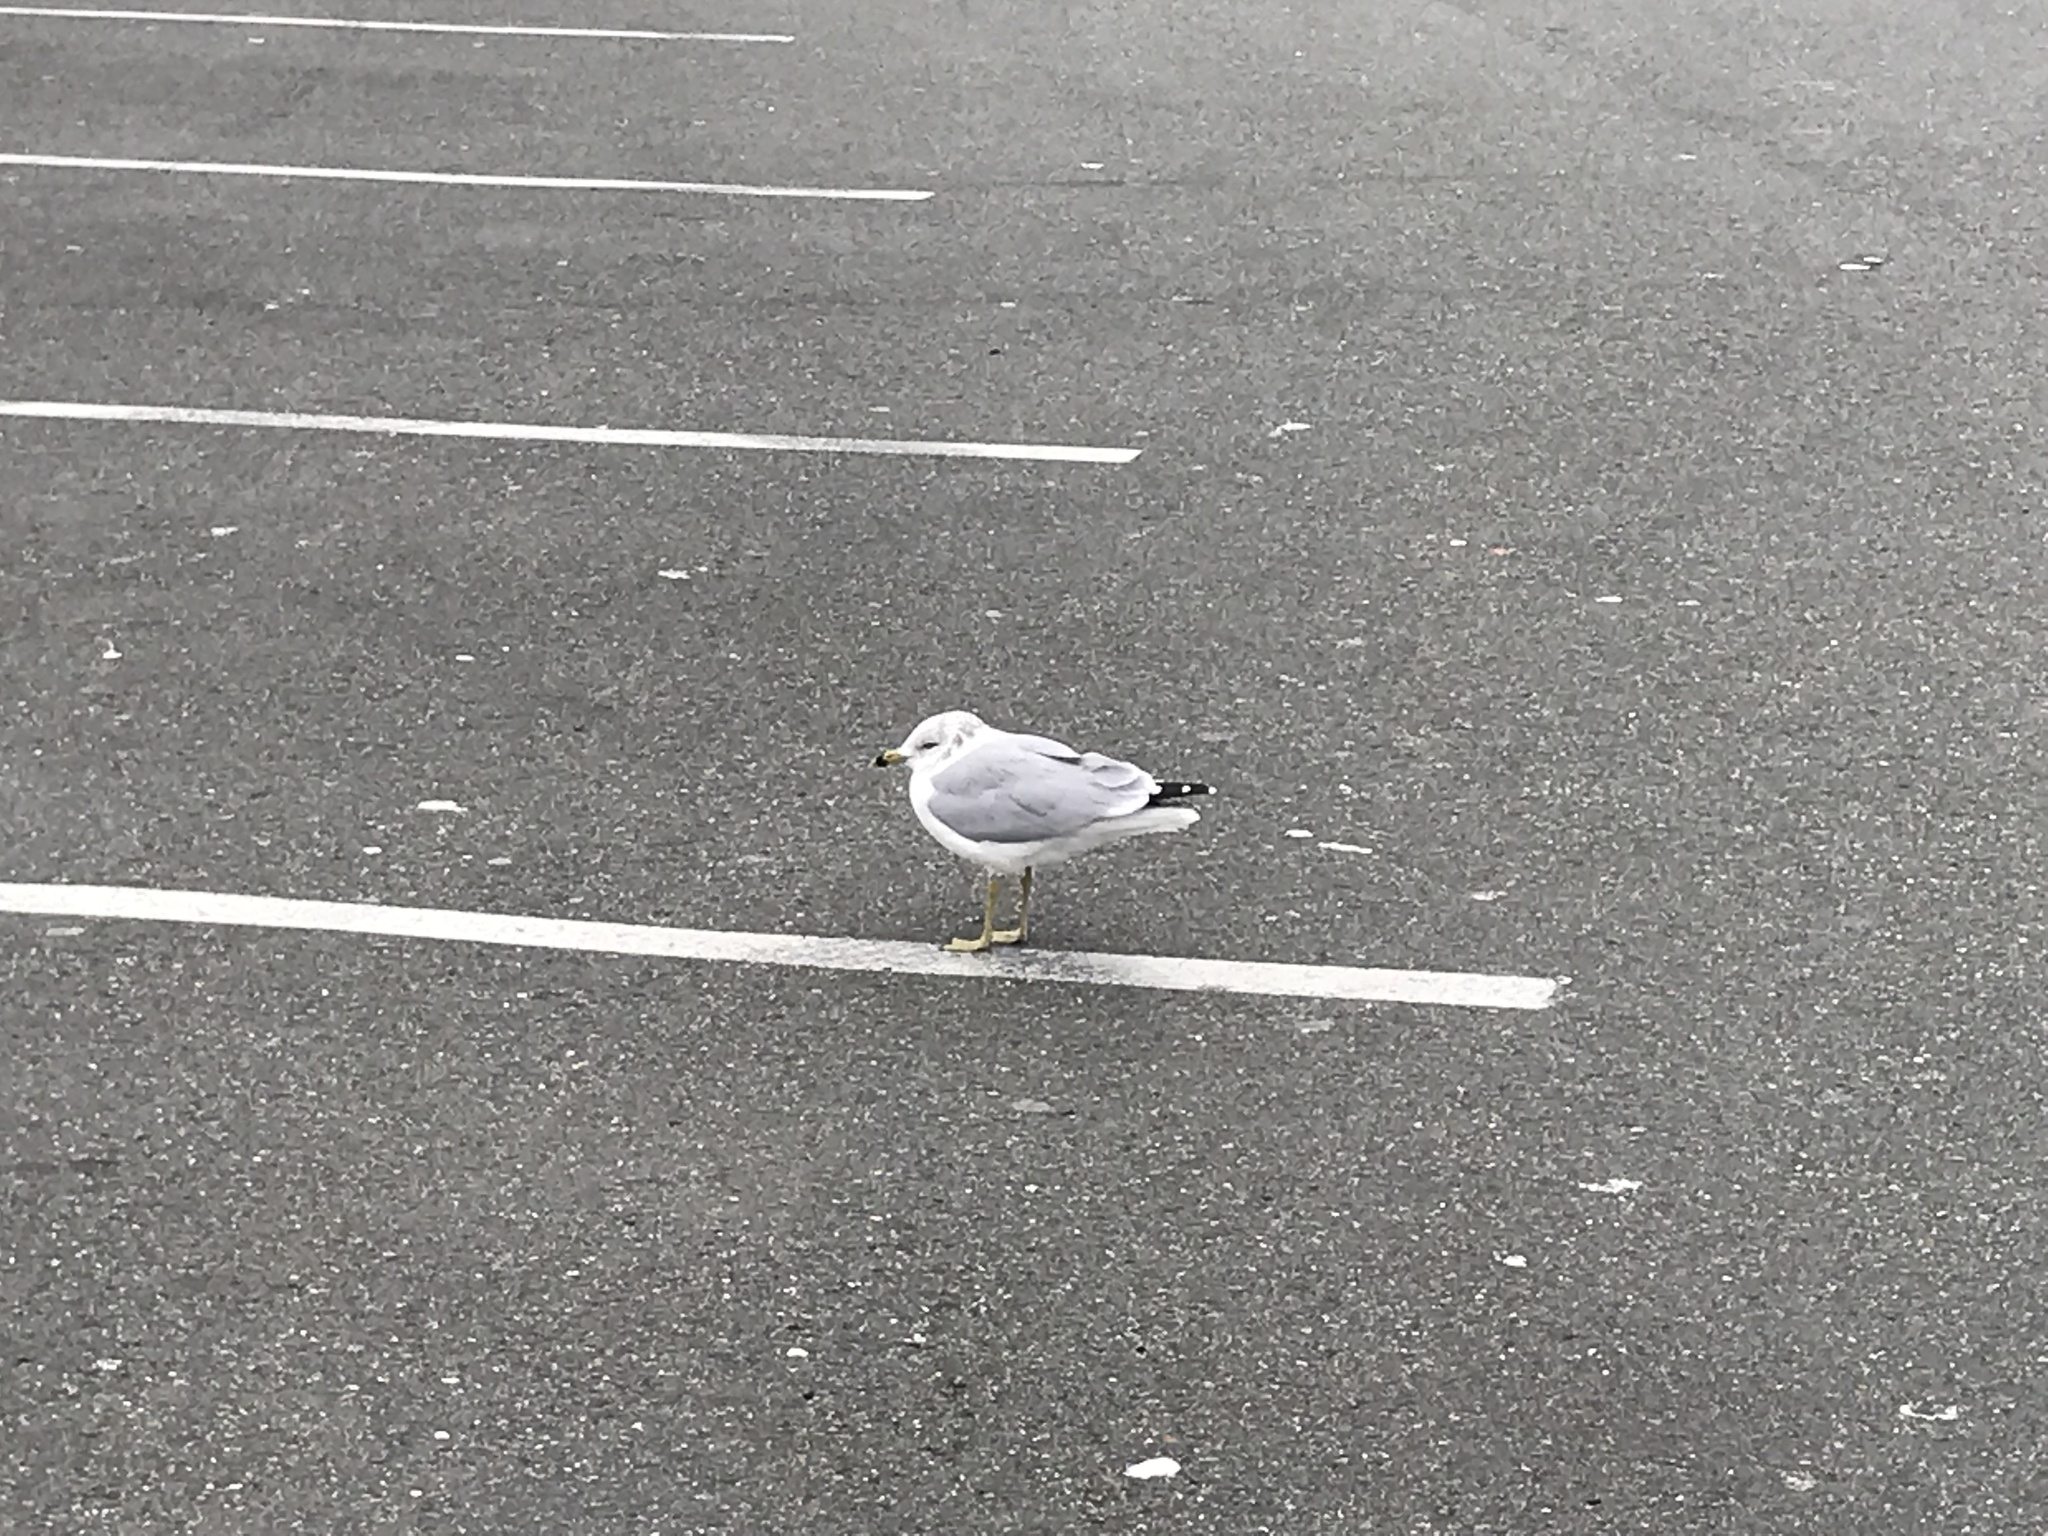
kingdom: Animalia
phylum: Chordata
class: Aves
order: Charadriiformes
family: Laridae
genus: Larus
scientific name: Larus delawarensis
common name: Ring-billed gull
